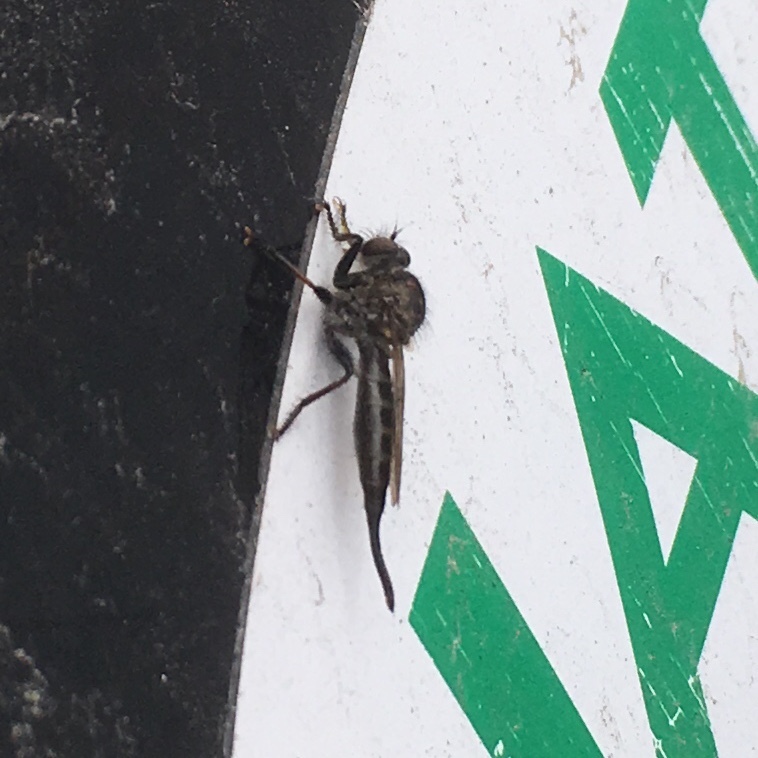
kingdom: Animalia
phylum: Arthropoda
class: Insecta
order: Diptera
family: Asilidae
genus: Efferia
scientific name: Efferia aestuans
